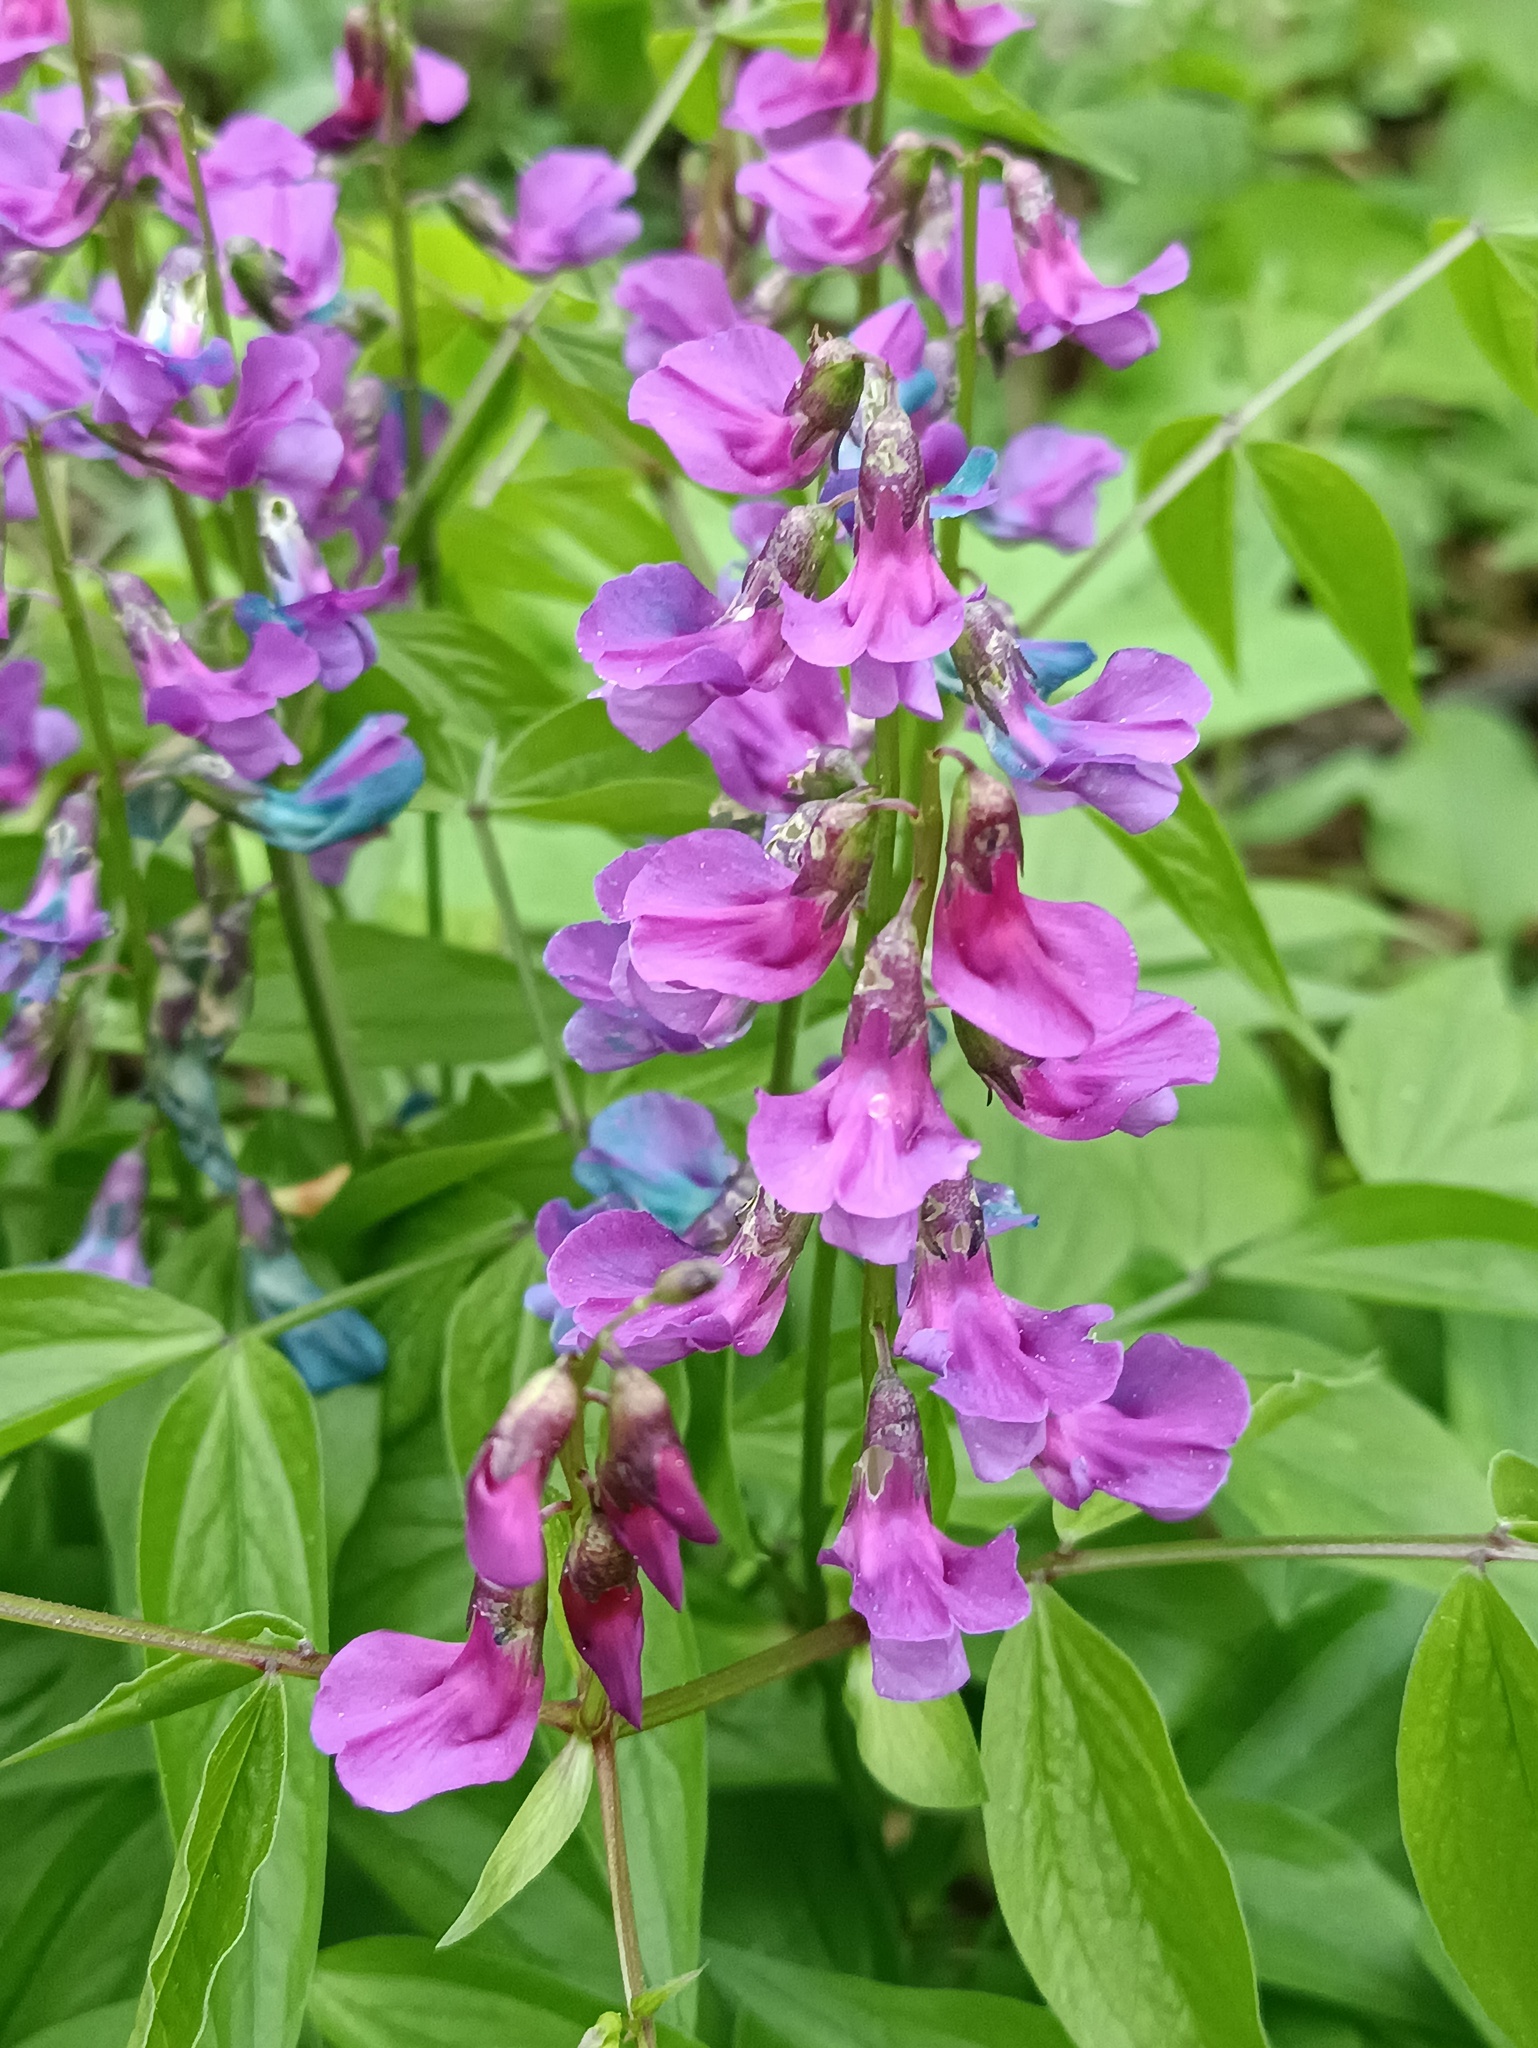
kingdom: Plantae
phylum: Tracheophyta
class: Magnoliopsida
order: Fabales
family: Fabaceae
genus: Lathyrus
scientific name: Lathyrus vernus
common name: Spring pea
